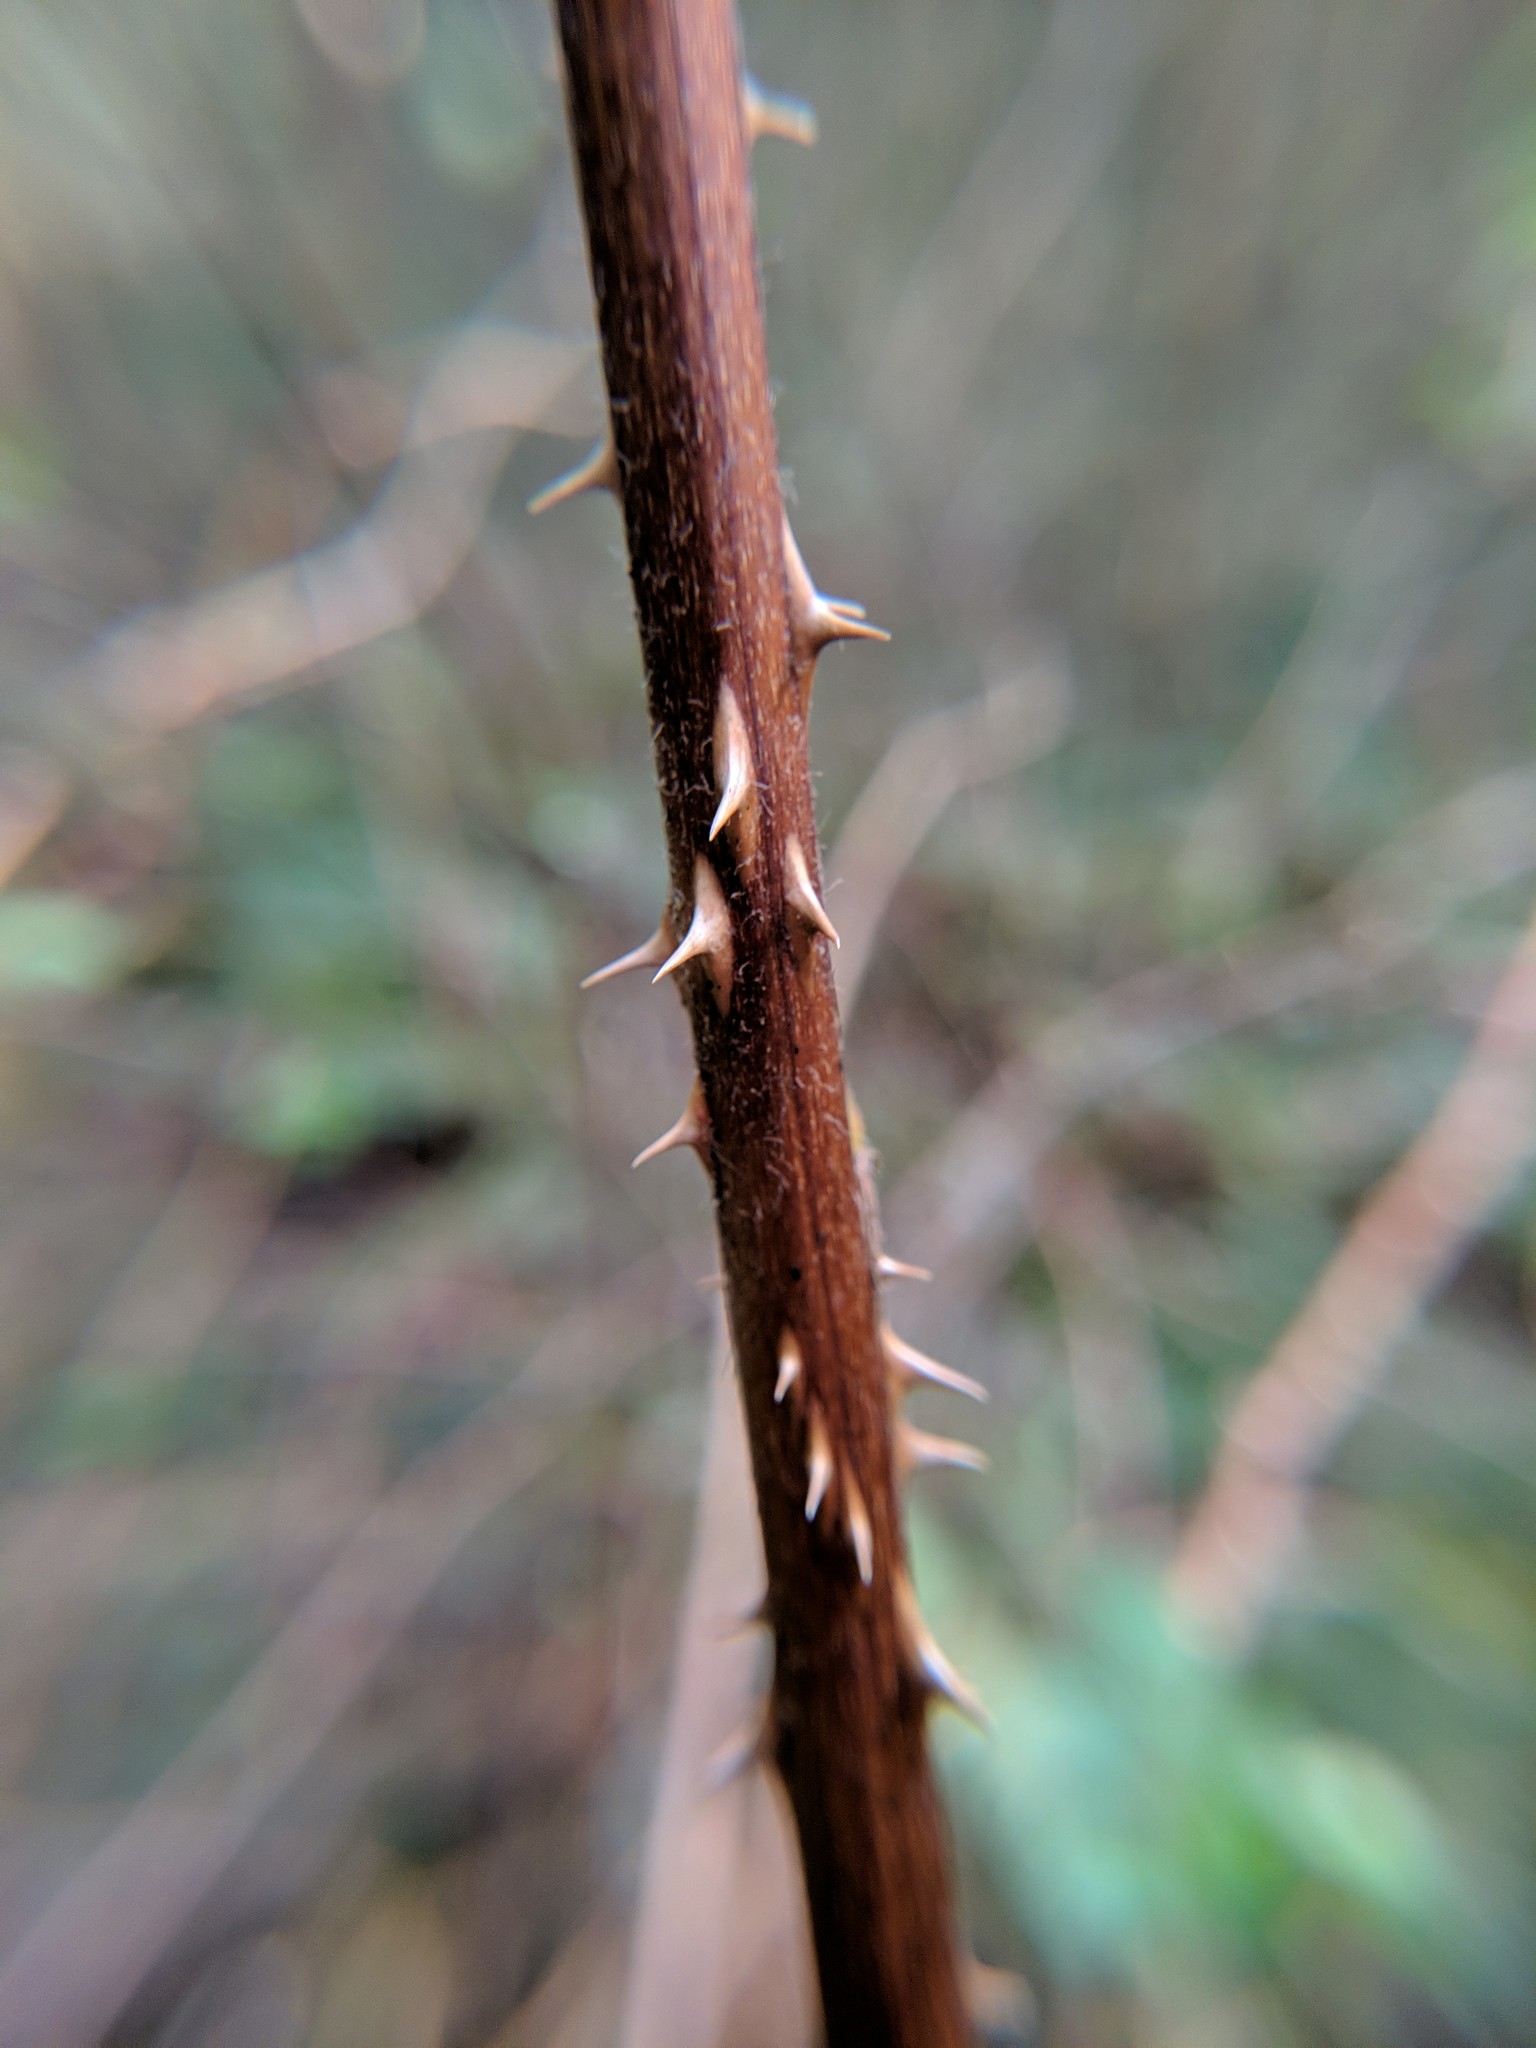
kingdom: Plantae
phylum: Tracheophyta
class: Magnoliopsida
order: Rosales
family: Rosaceae
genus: Rubus
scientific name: Rubus spectabilis
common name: Salmonberry
